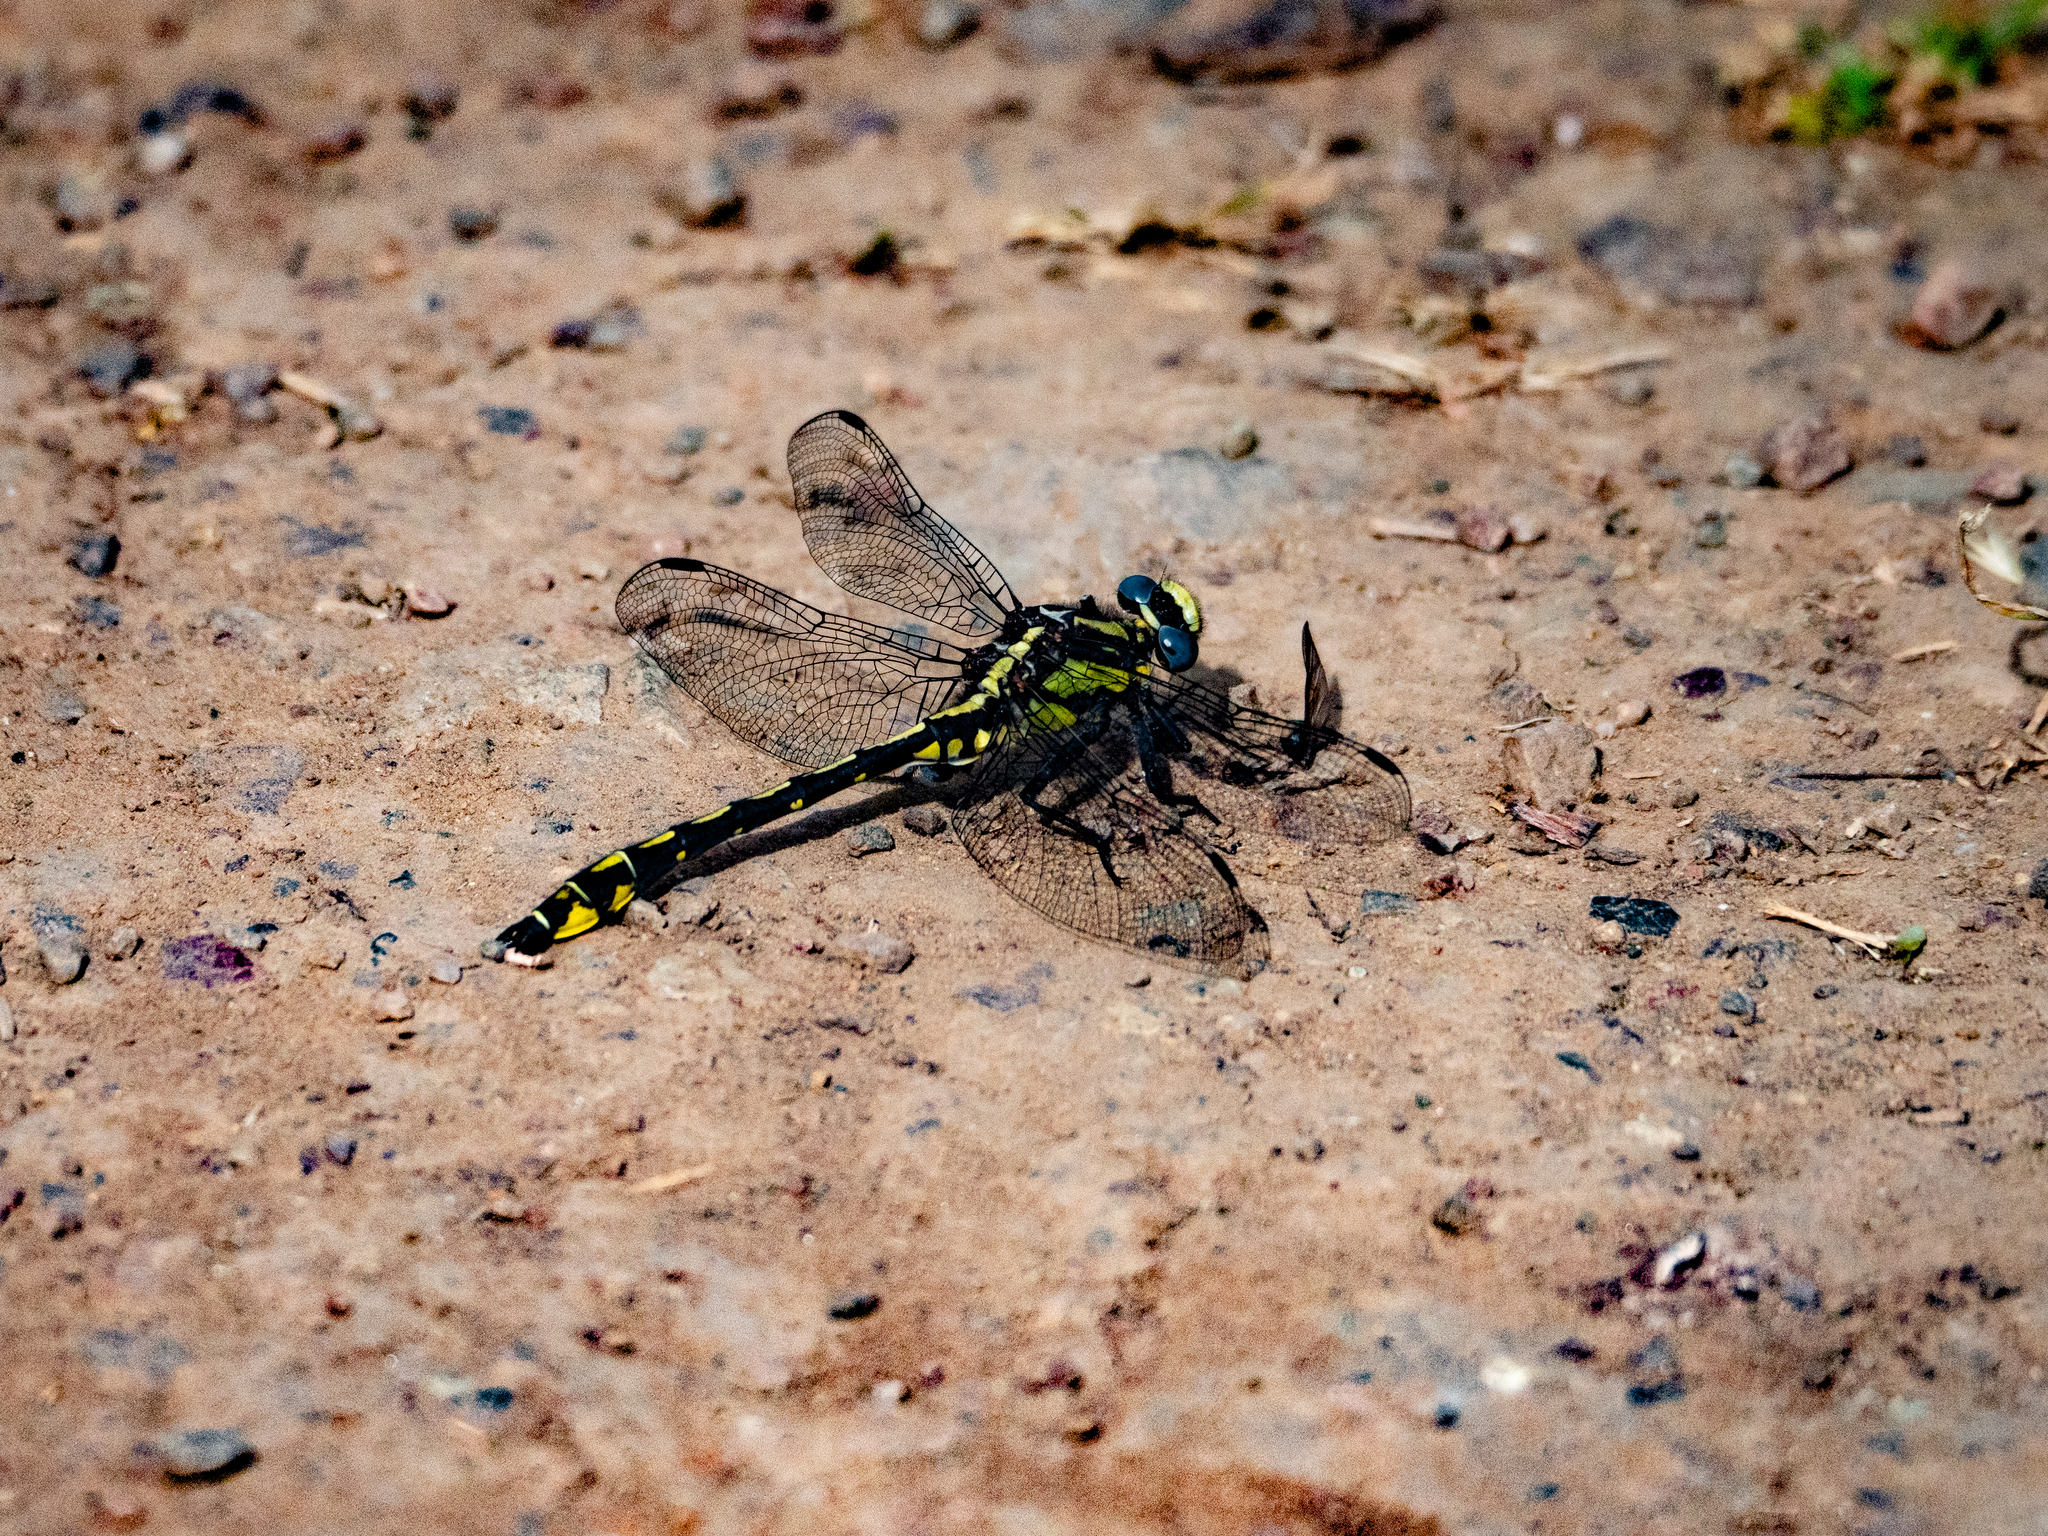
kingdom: Animalia
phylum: Arthropoda
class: Insecta
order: Odonata
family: Gomphidae
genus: Phanogomphus
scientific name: Phanogomphus kurilis
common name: Pacific clubtail
